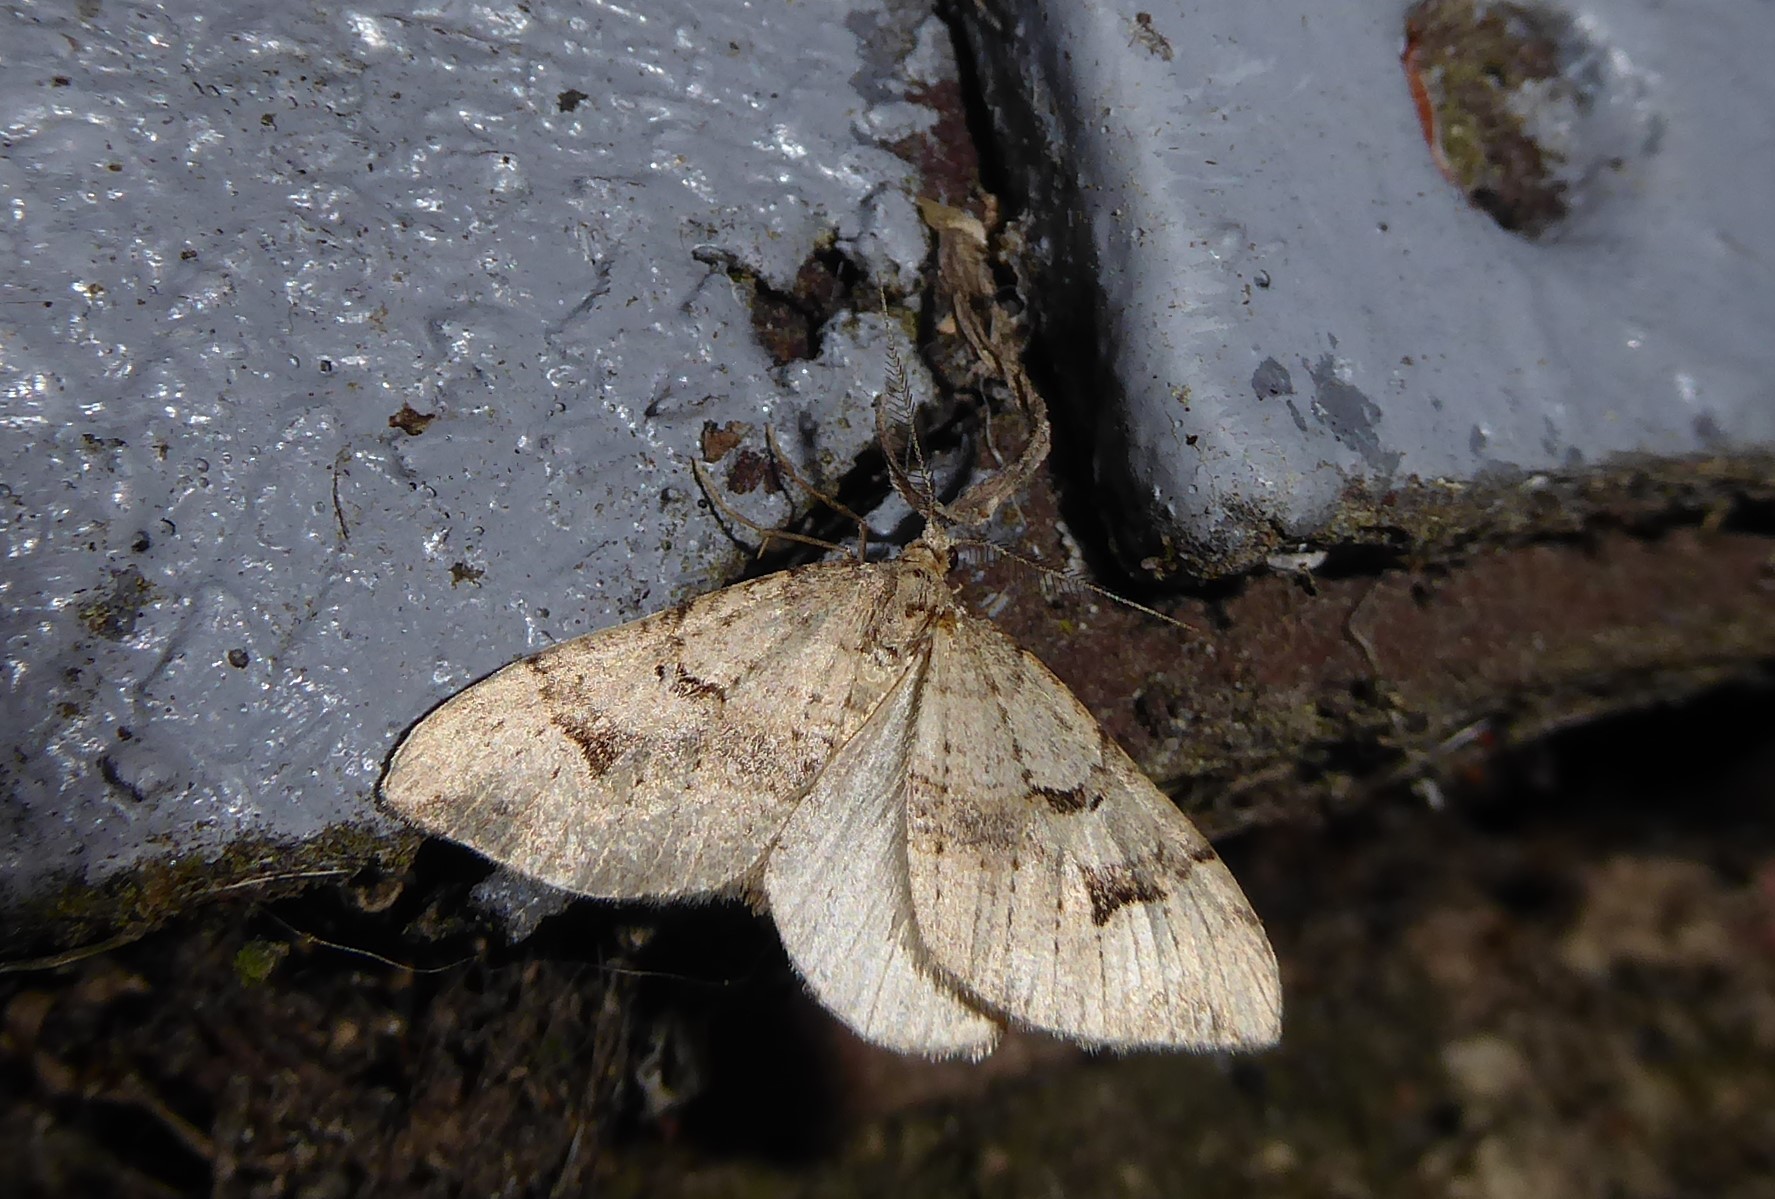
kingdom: Animalia
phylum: Arthropoda
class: Insecta
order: Lepidoptera
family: Geometridae
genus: Epyaxa
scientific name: Epyaxa rosearia
